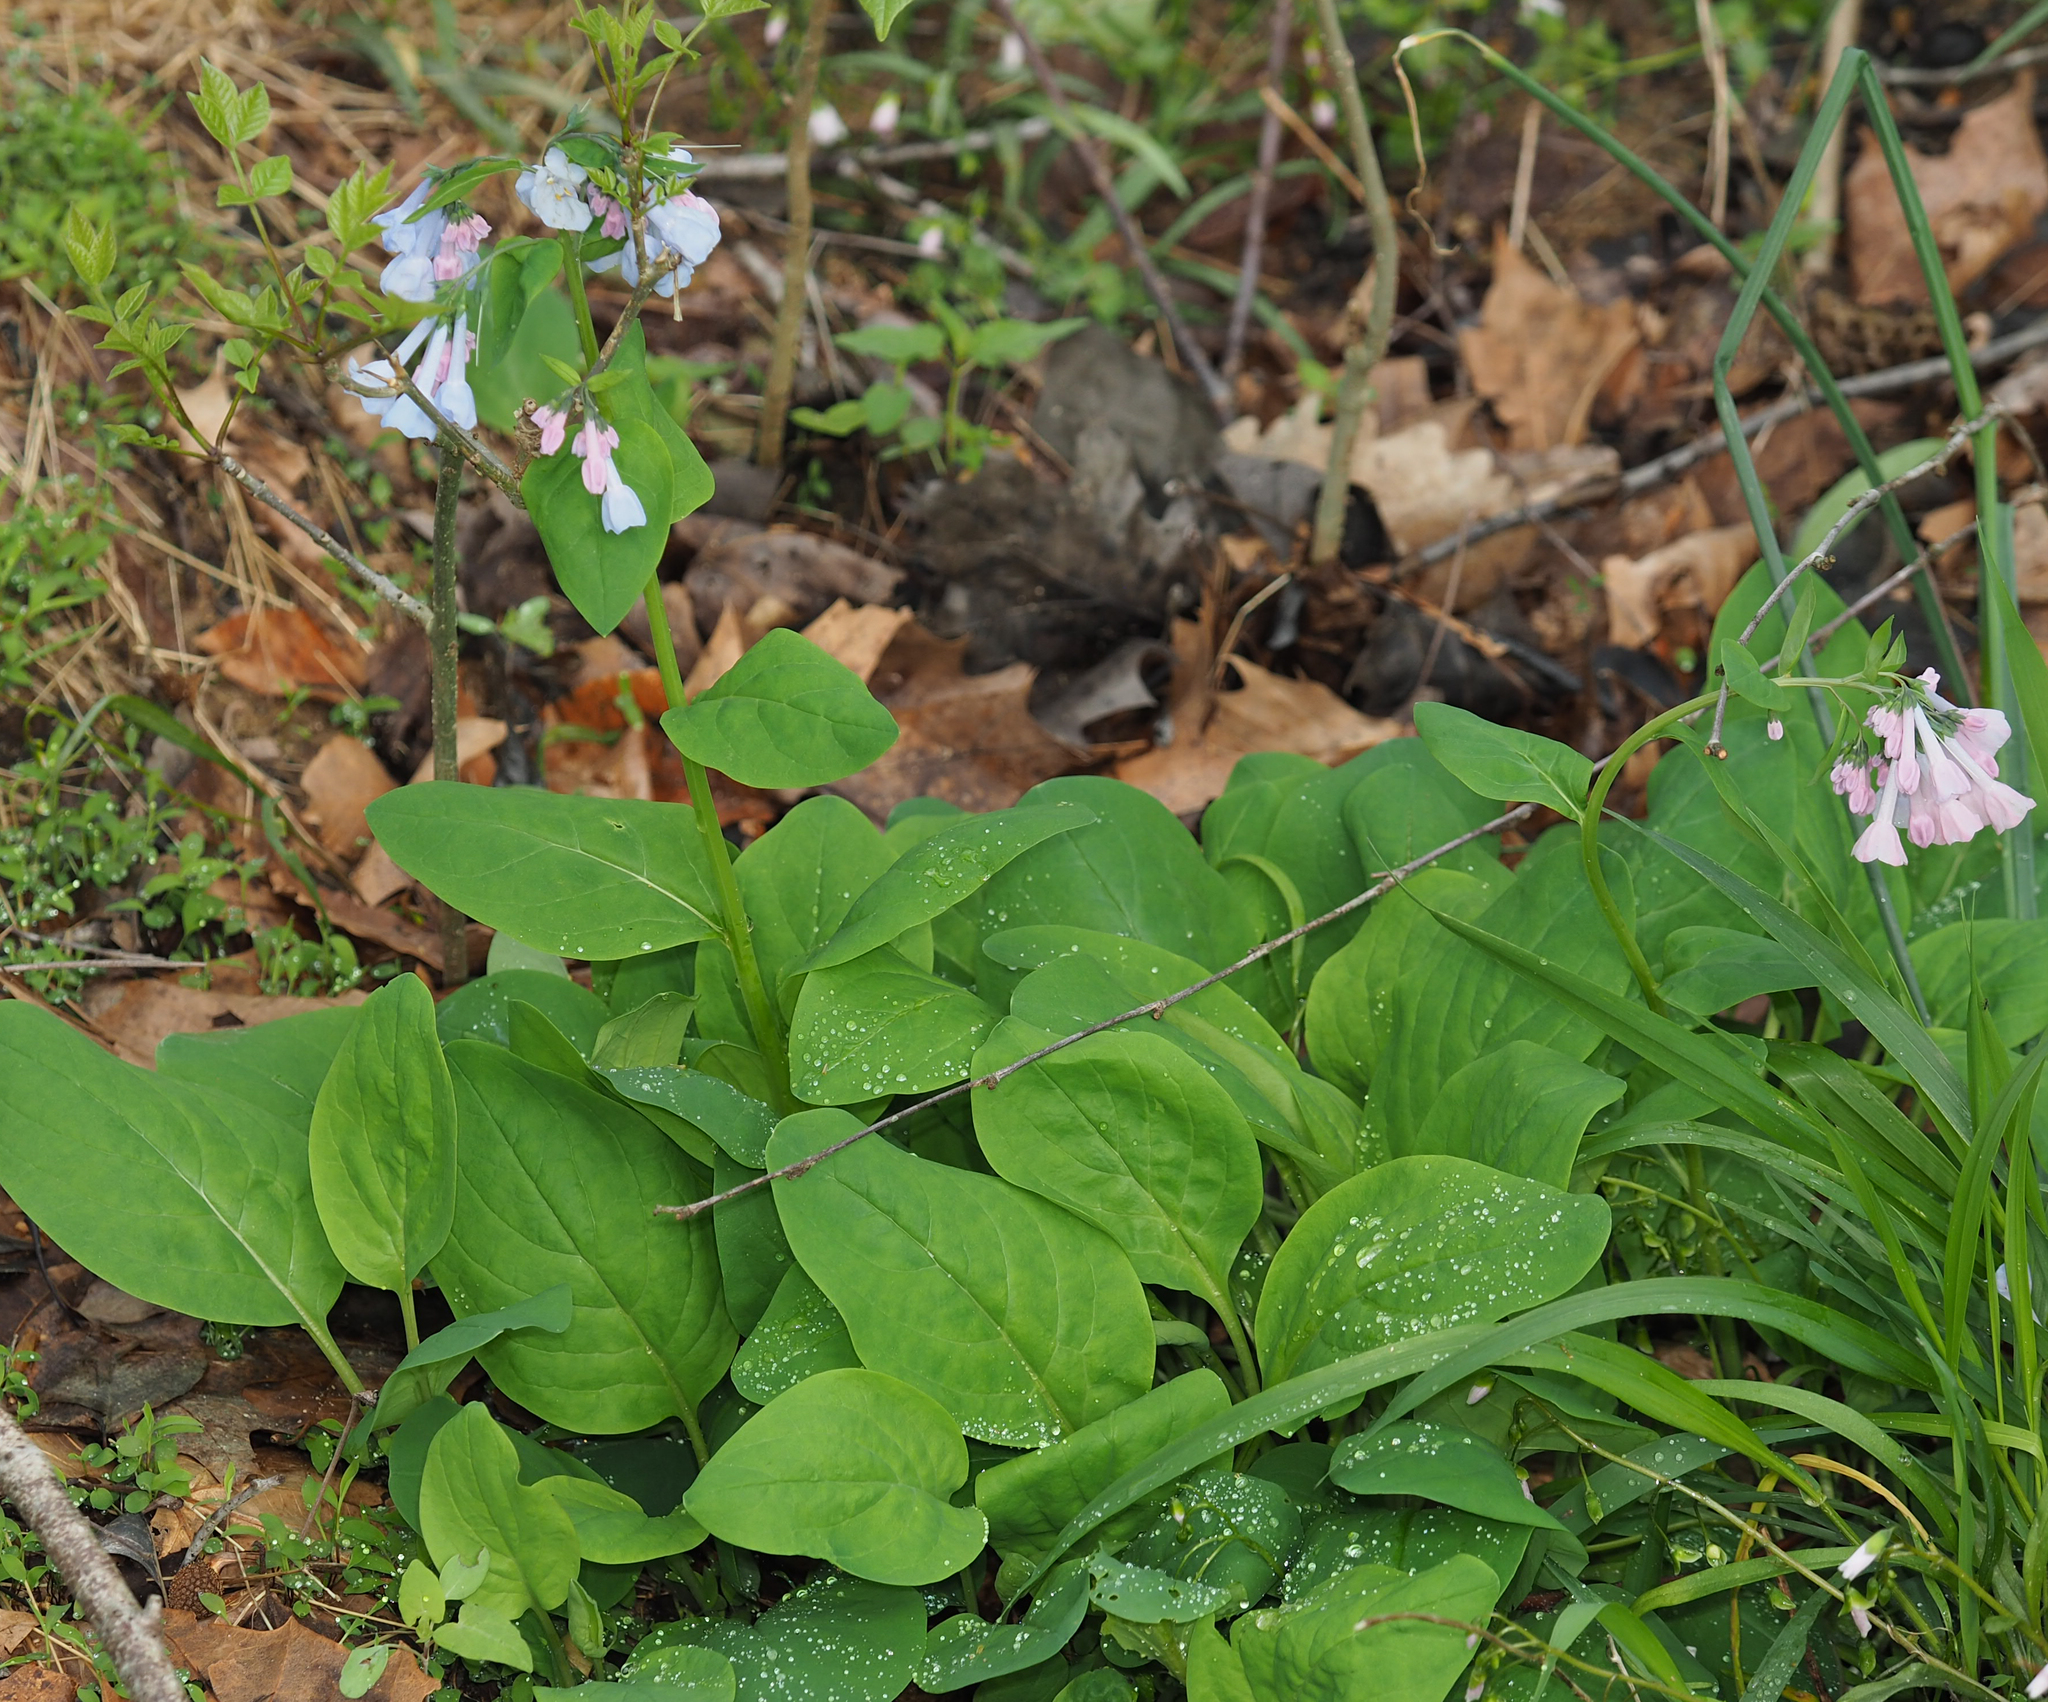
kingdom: Plantae
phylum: Tracheophyta
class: Magnoliopsida
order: Boraginales
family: Boraginaceae
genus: Mertensia
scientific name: Mertensia virginica
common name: Virginia bluebells
